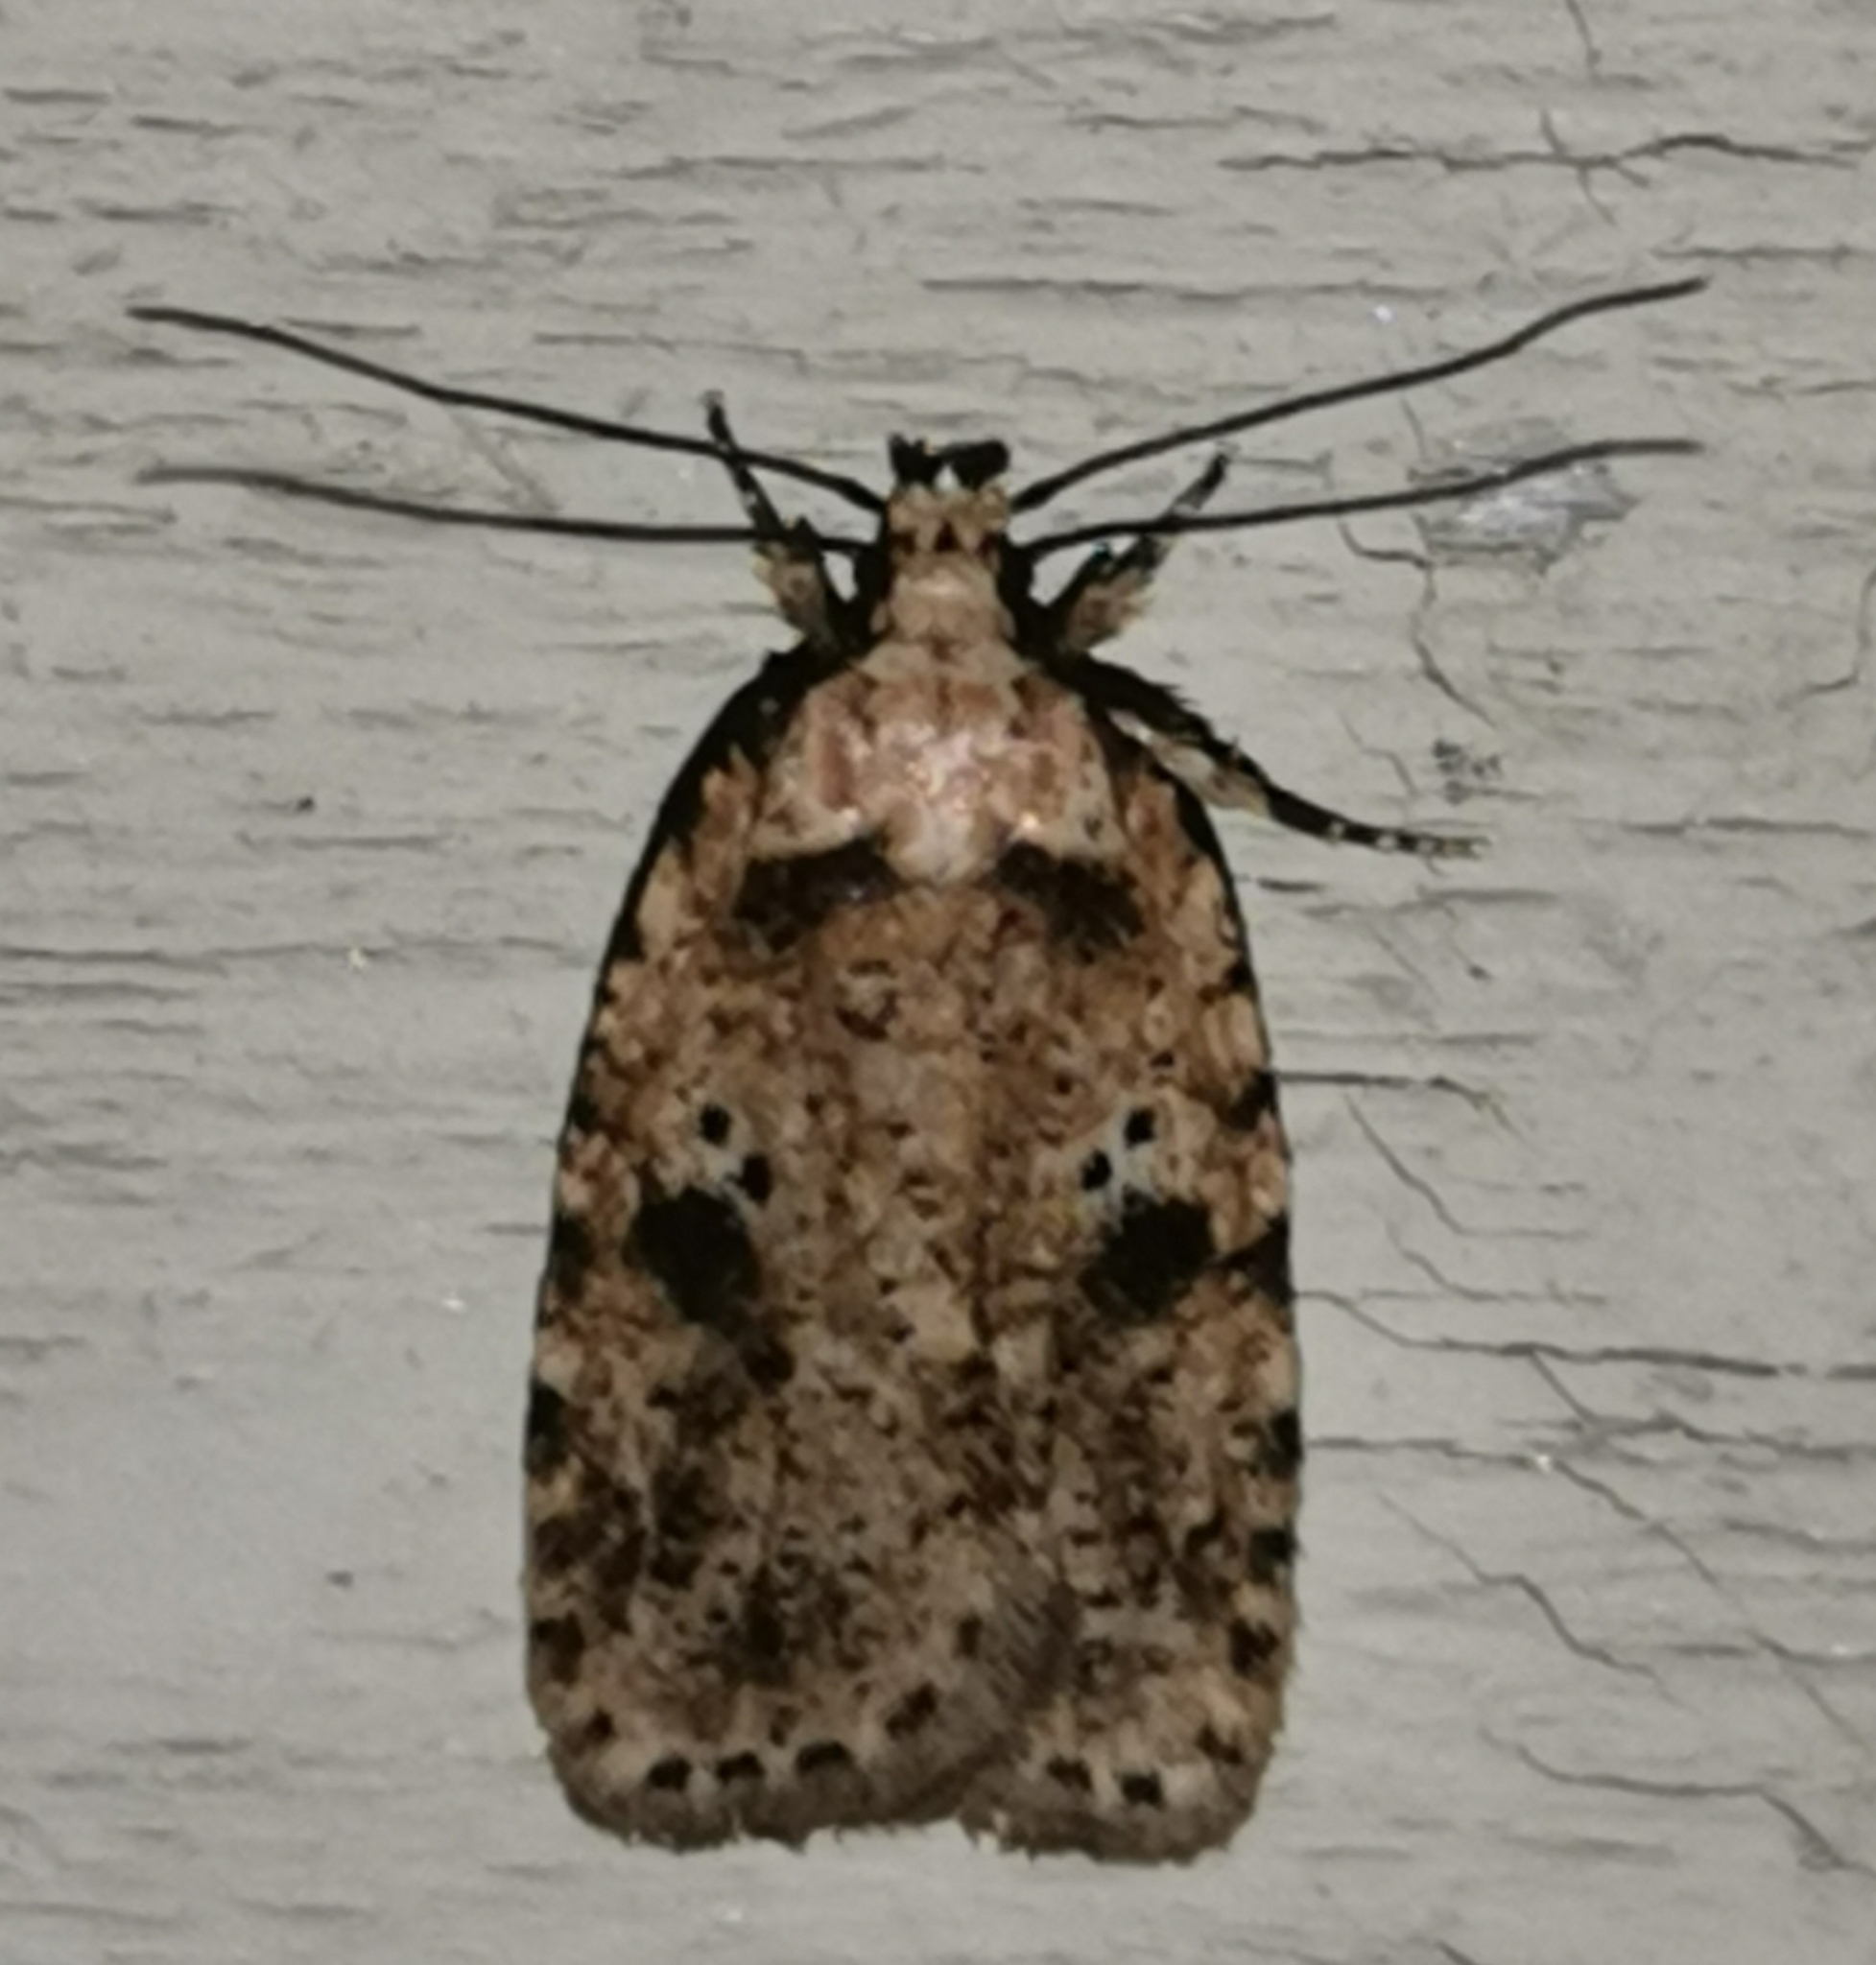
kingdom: Animalia
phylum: Arthropoda
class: Insecta
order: Lepidoptera
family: Depressariidae
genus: Agonopterix
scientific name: Agonopterix arenella
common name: Brindled flat-body
